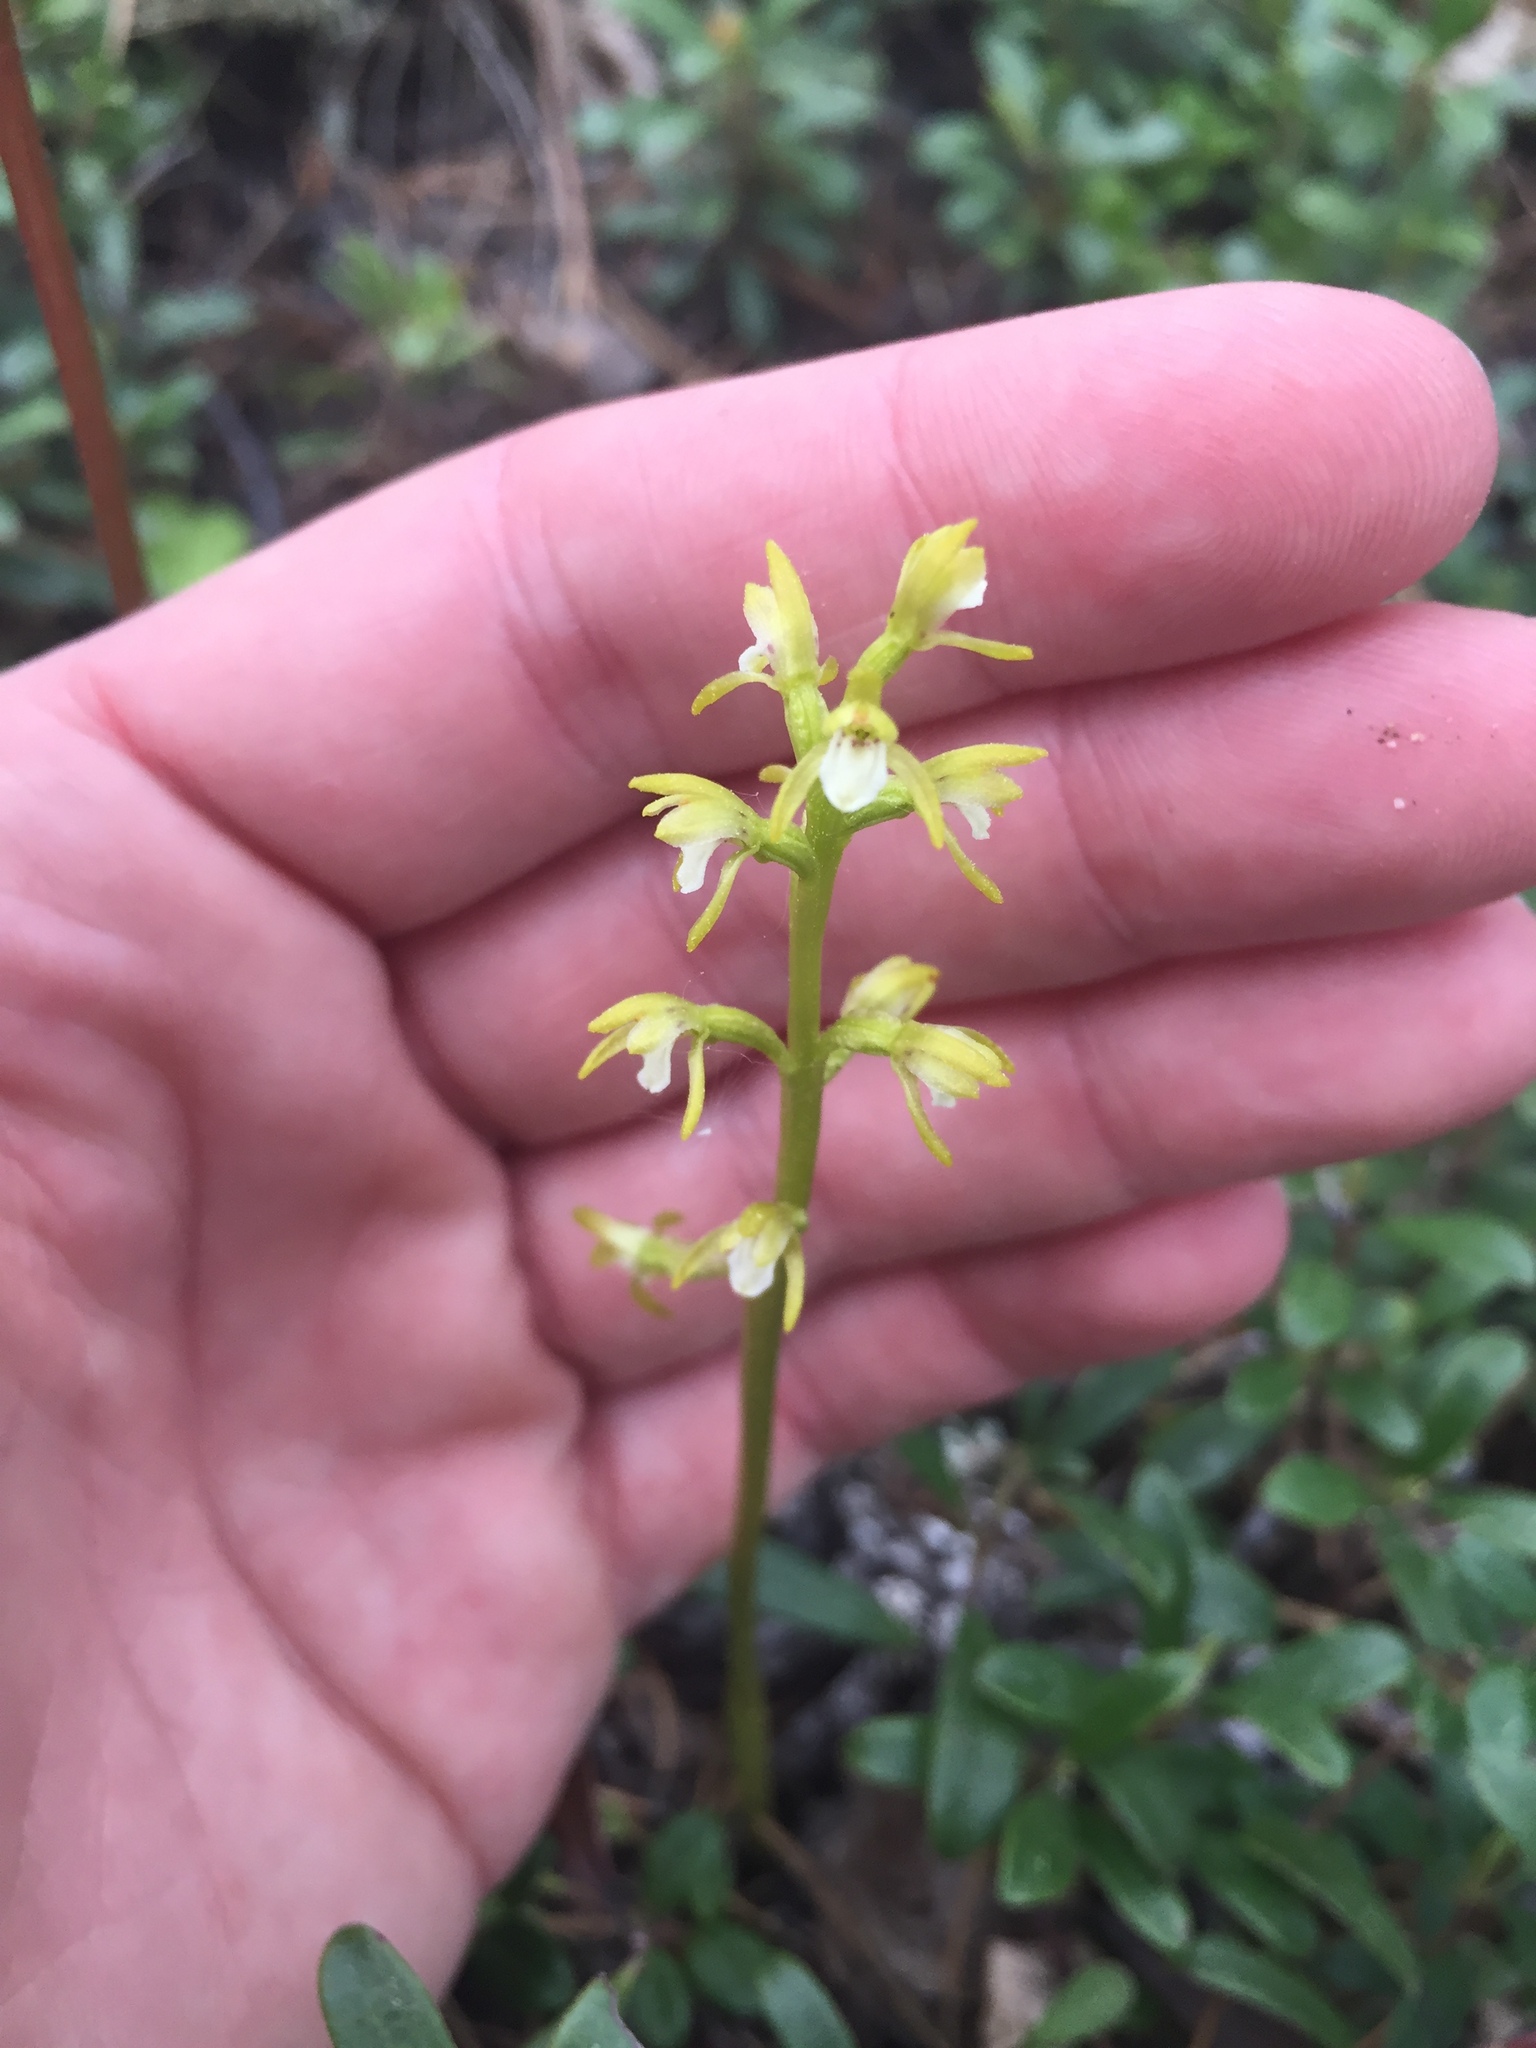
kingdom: Plantae
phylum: Tracheophyta
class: Liliopsida
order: Asparagales
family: Orchidaceae
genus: Corallorhiza
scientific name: Corallorhiza trifida
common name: Yellow coralroot
